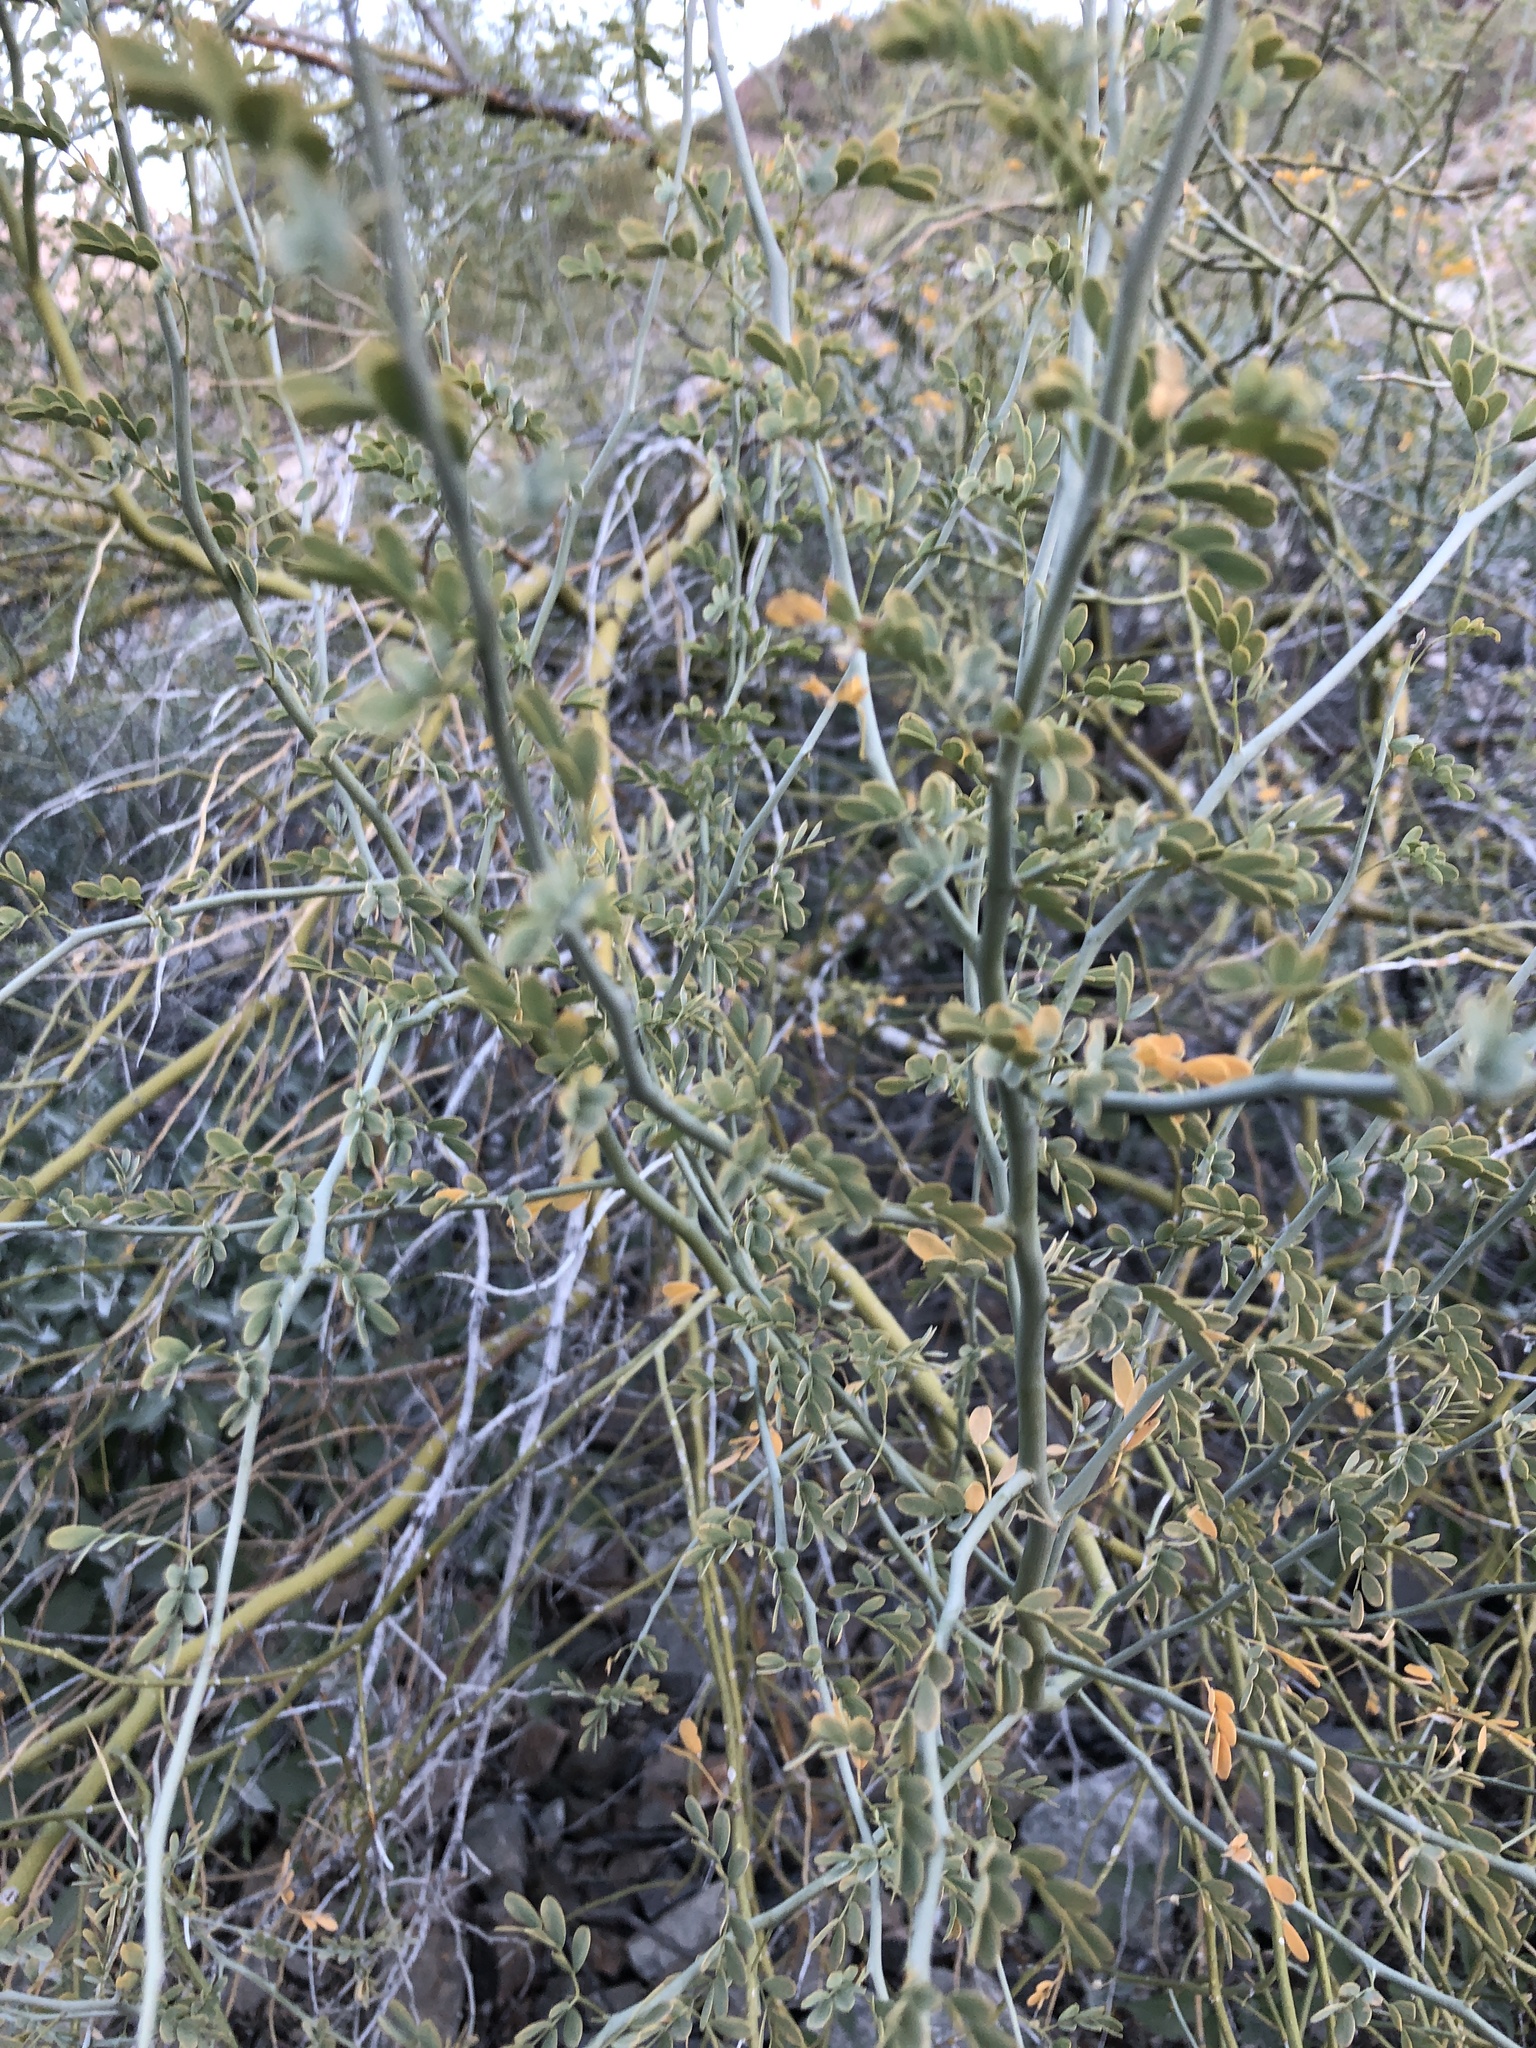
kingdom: Plantae
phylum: Tracheophyta
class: Magnoliopsida
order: Fabales
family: Fabaceae
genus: Parkinsonia
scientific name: Parkinsonia florida
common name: Blue paloverde
